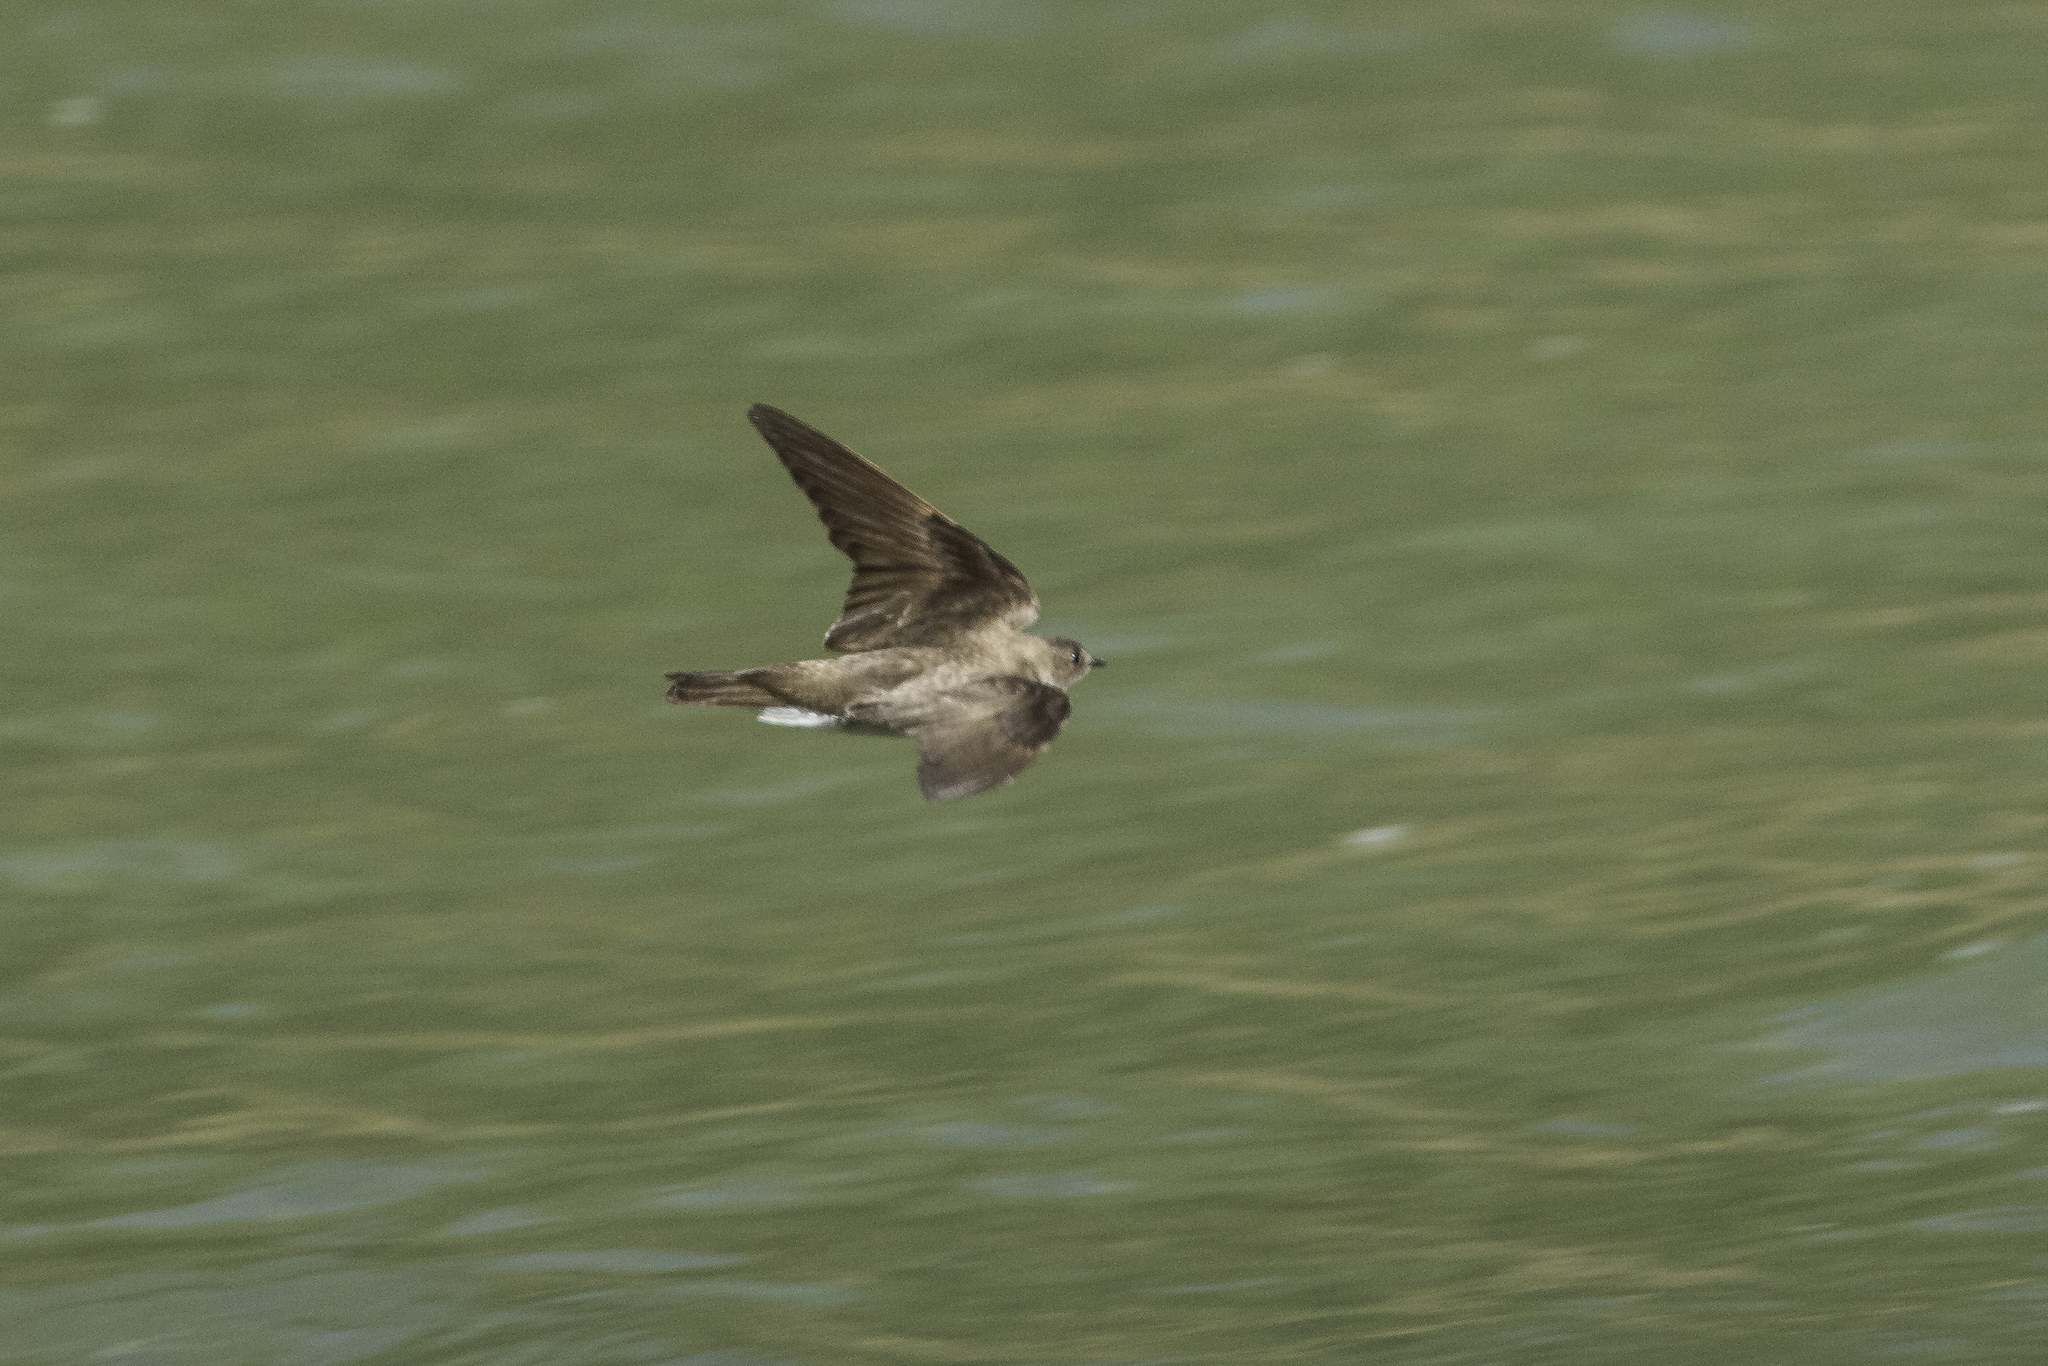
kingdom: Animalia
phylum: Chordata
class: Aves
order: Passeriformes
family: Hirundinidae
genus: Stelgidopteryx
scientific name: Stelgidopteryx serripennis
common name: Northern rough-winged swallow
